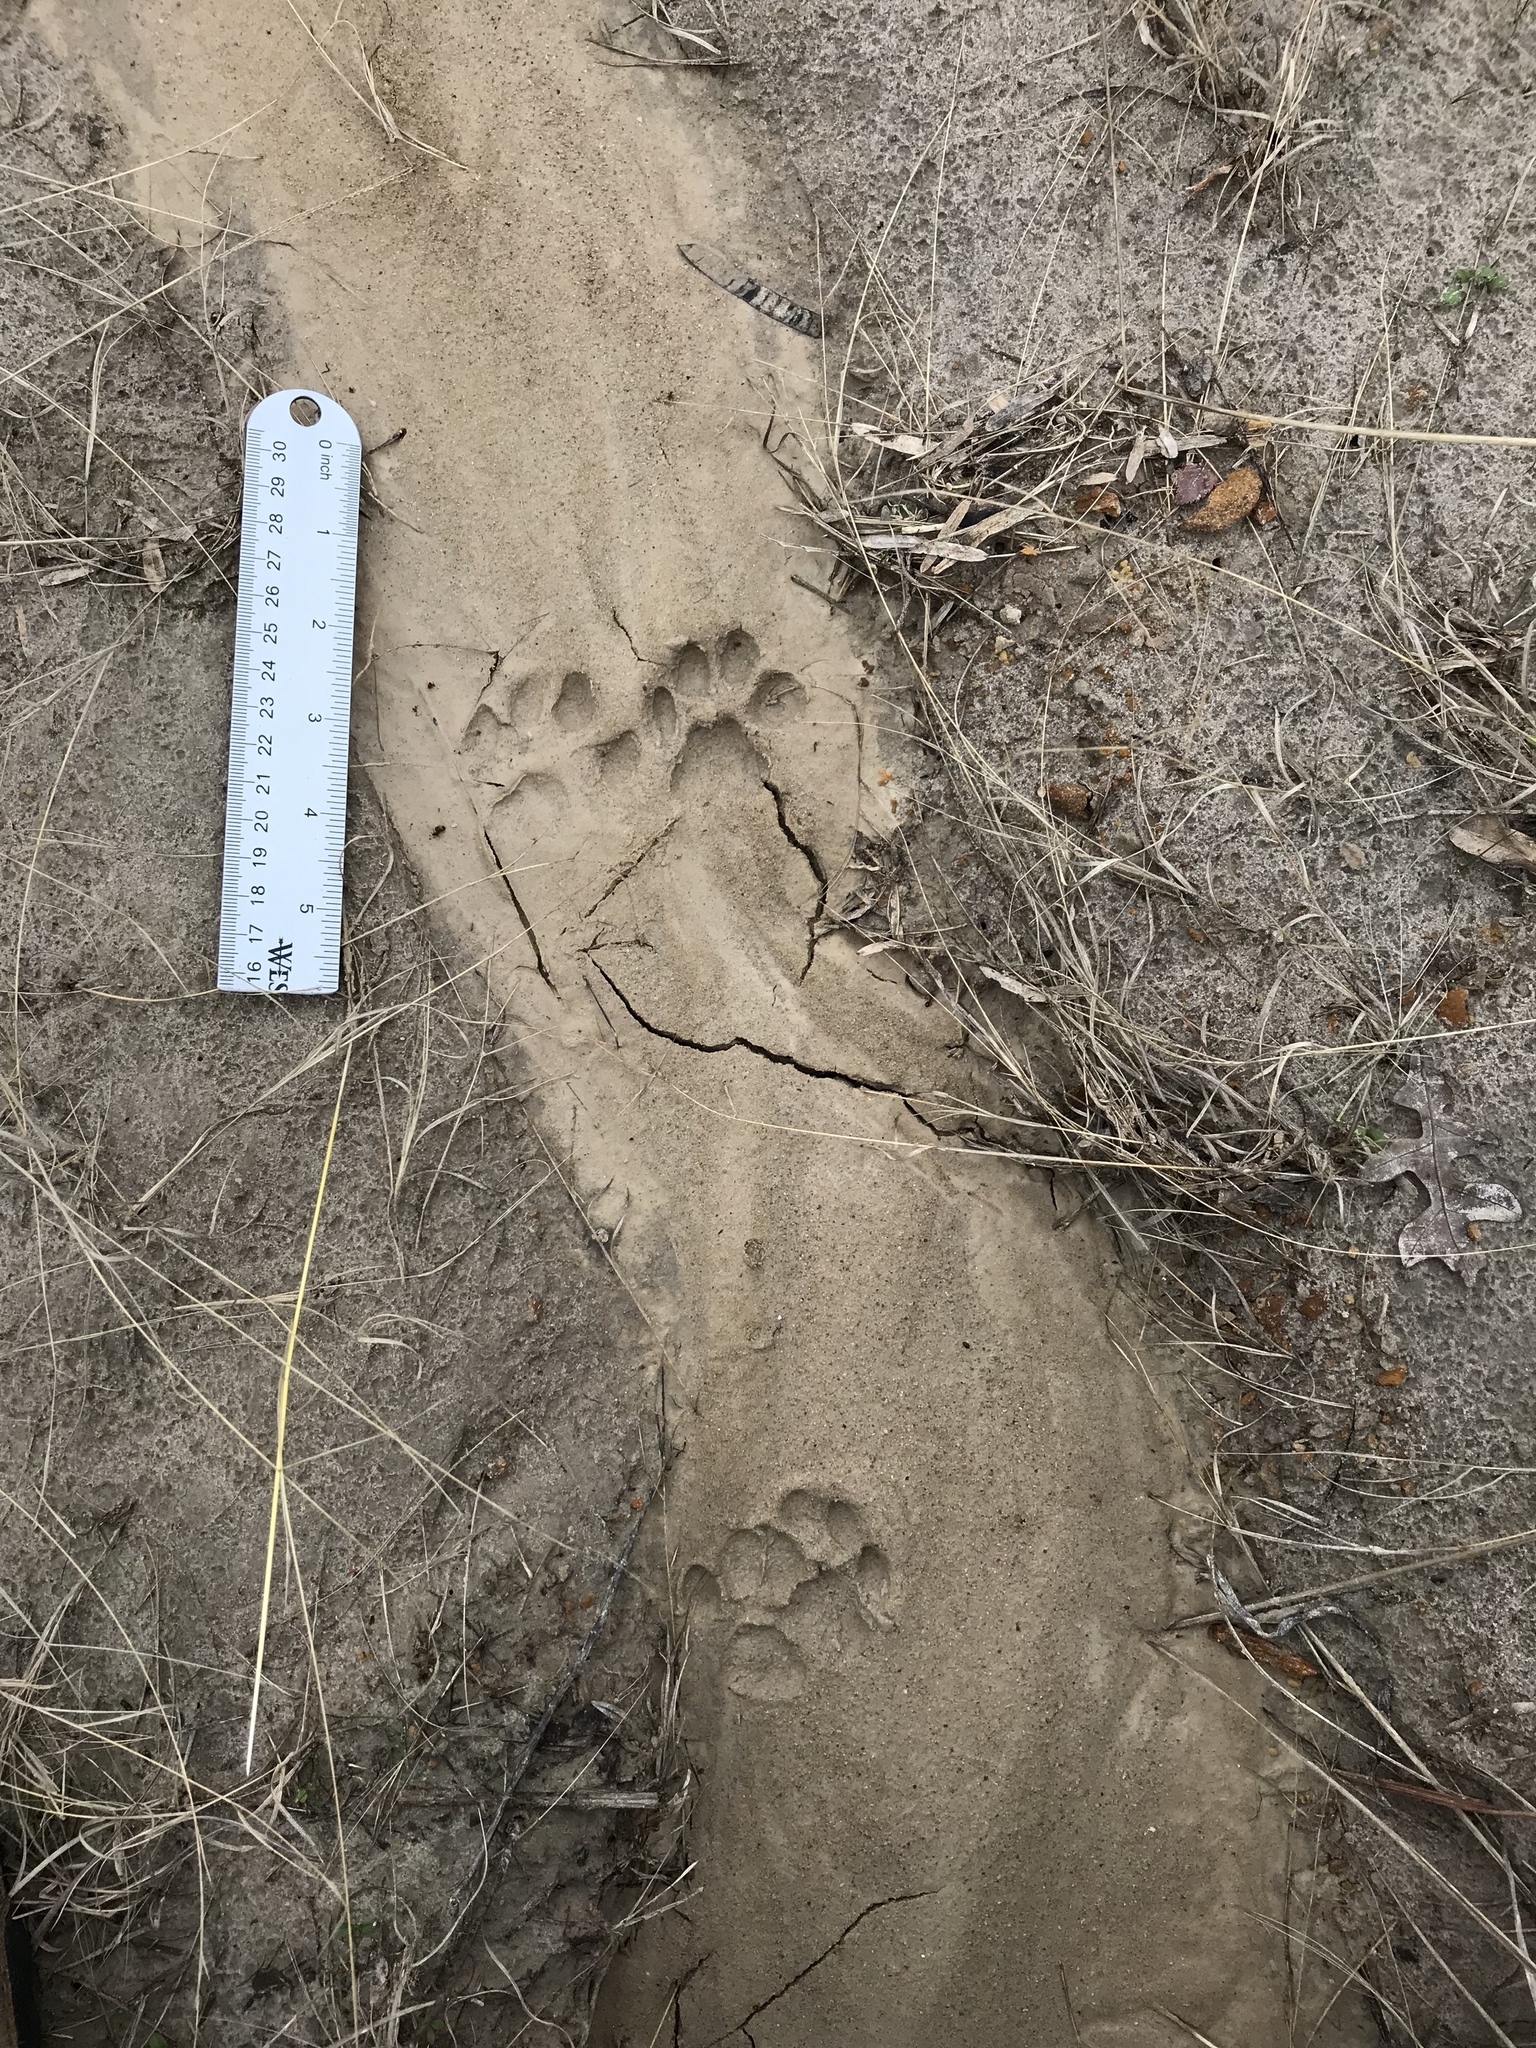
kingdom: Animalia
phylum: Chordata
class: Mammalia
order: Carnivora
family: Felidae
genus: Lynx
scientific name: Lynx rufus
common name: Bobcat
